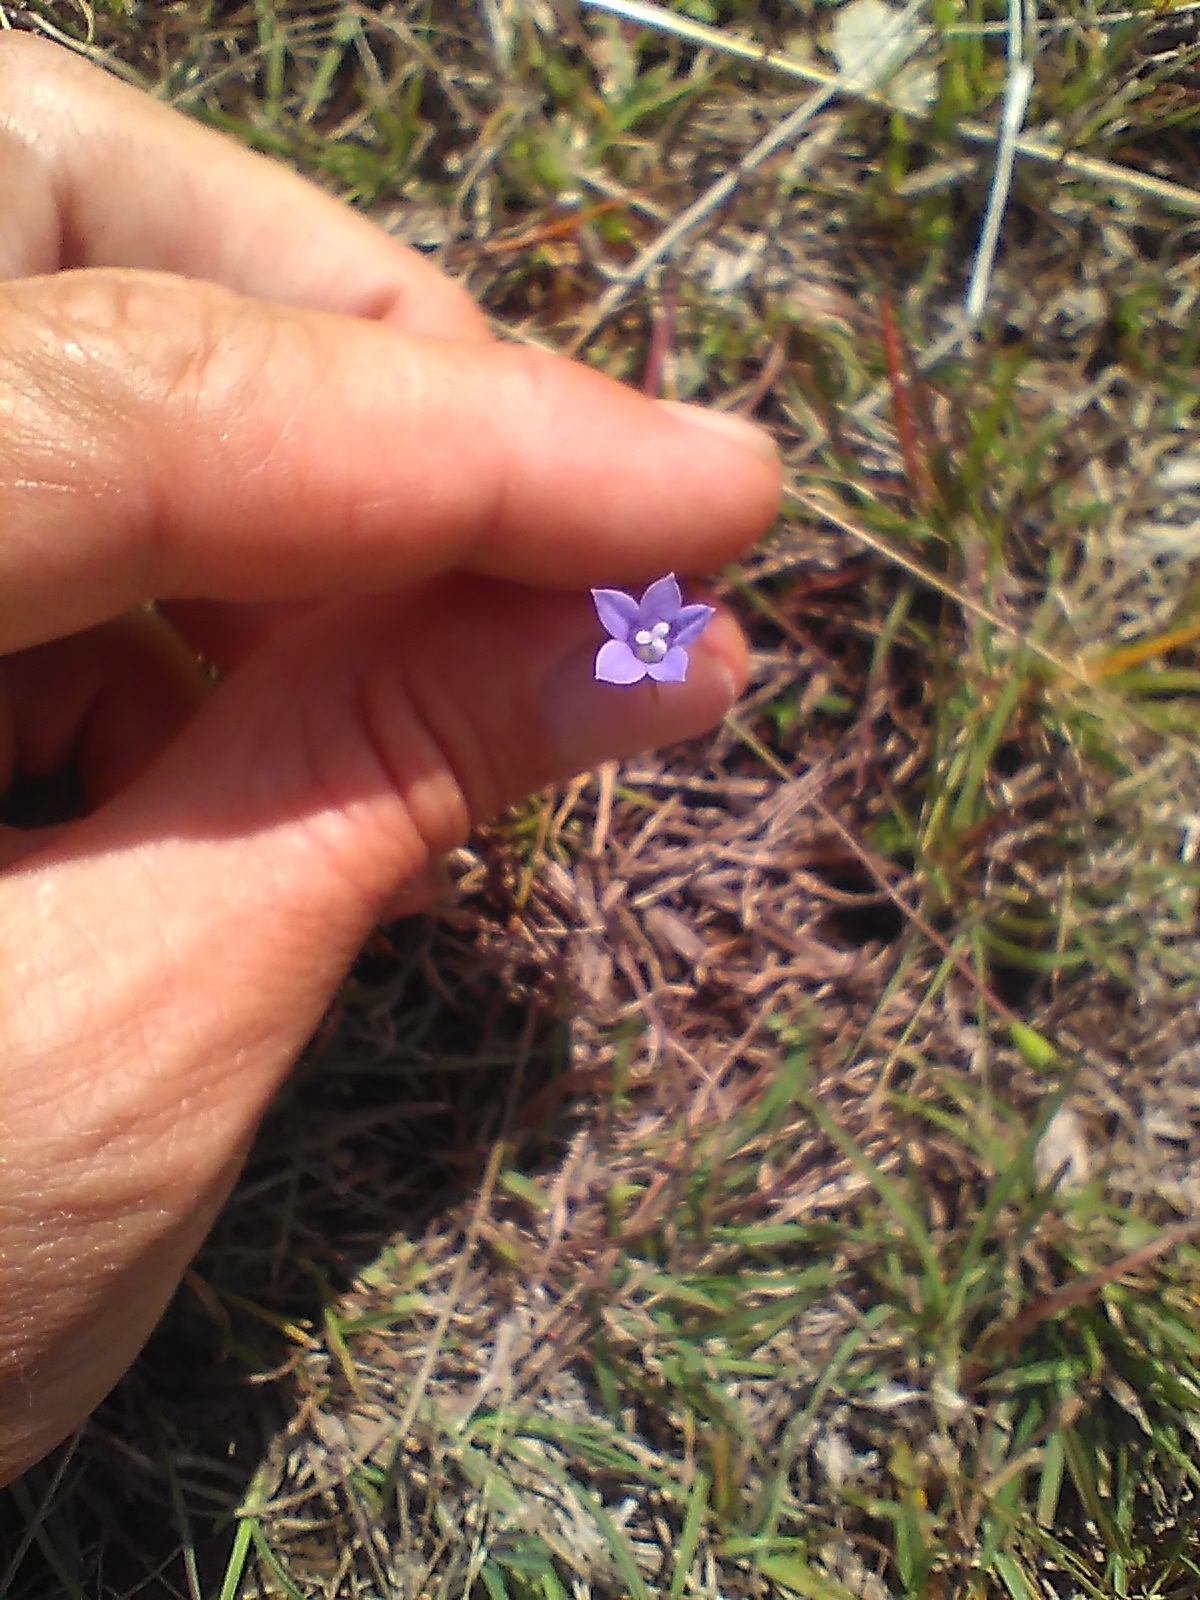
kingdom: Plantae
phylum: Tracheophyta
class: Magnoliopsida
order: Asterales
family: Campanulaceae
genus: Wahlenbergia
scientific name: Wahlenbergia gracilis
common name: Harebell
